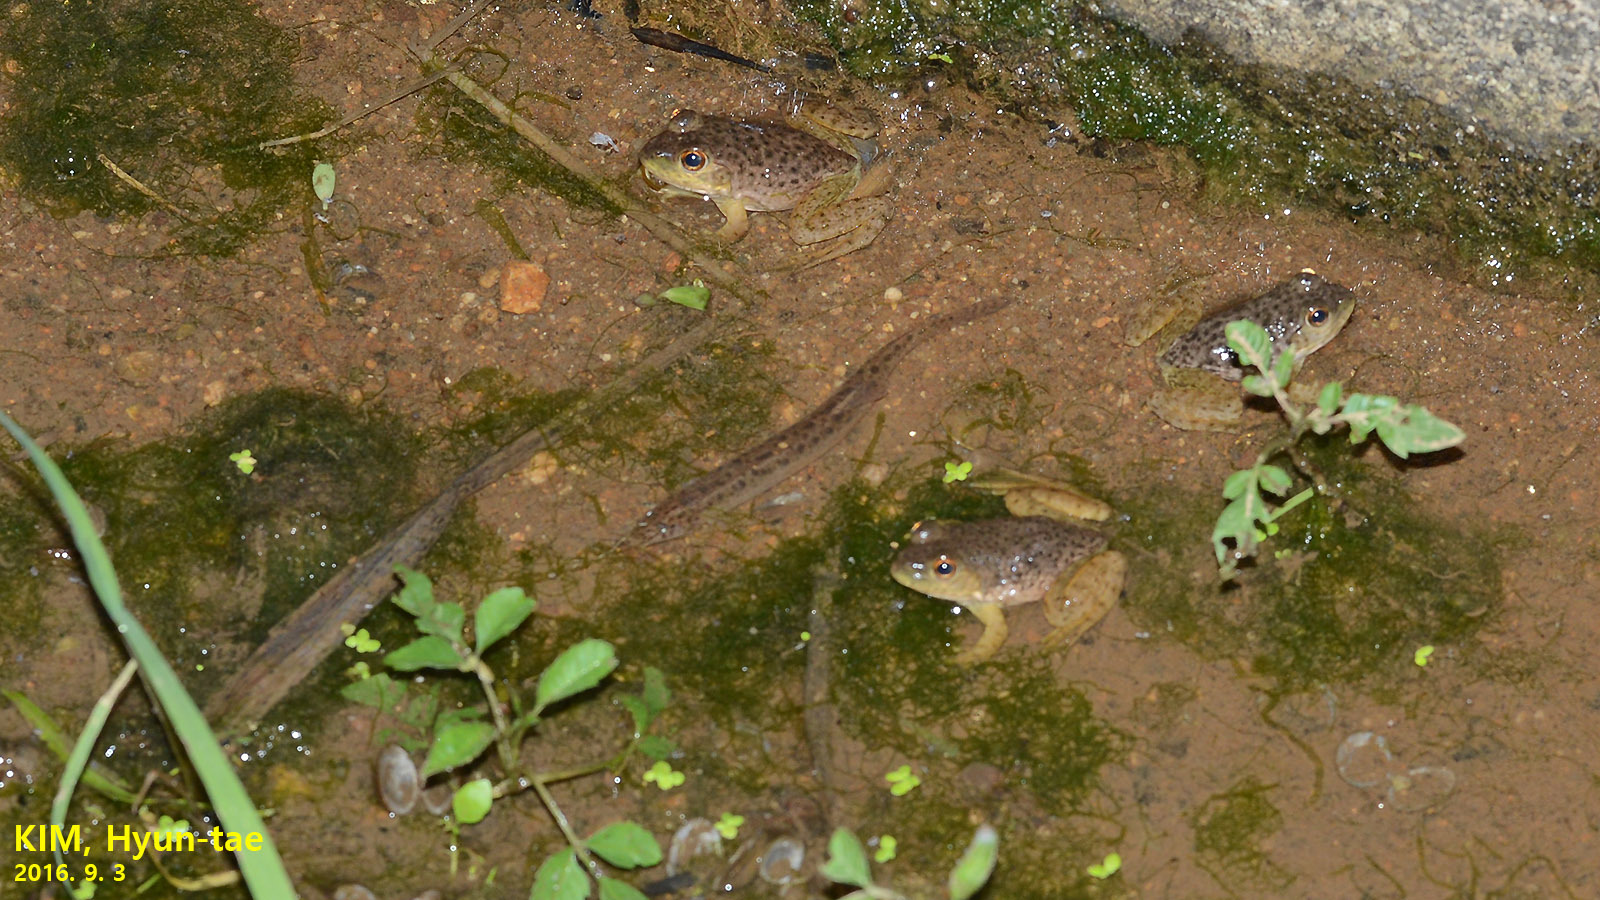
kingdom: Animalia
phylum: Chordata
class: Amphibia
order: Anura
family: Ranidae
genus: Lithobates
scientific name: Lithobates catesbeianus
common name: American bullfrog
